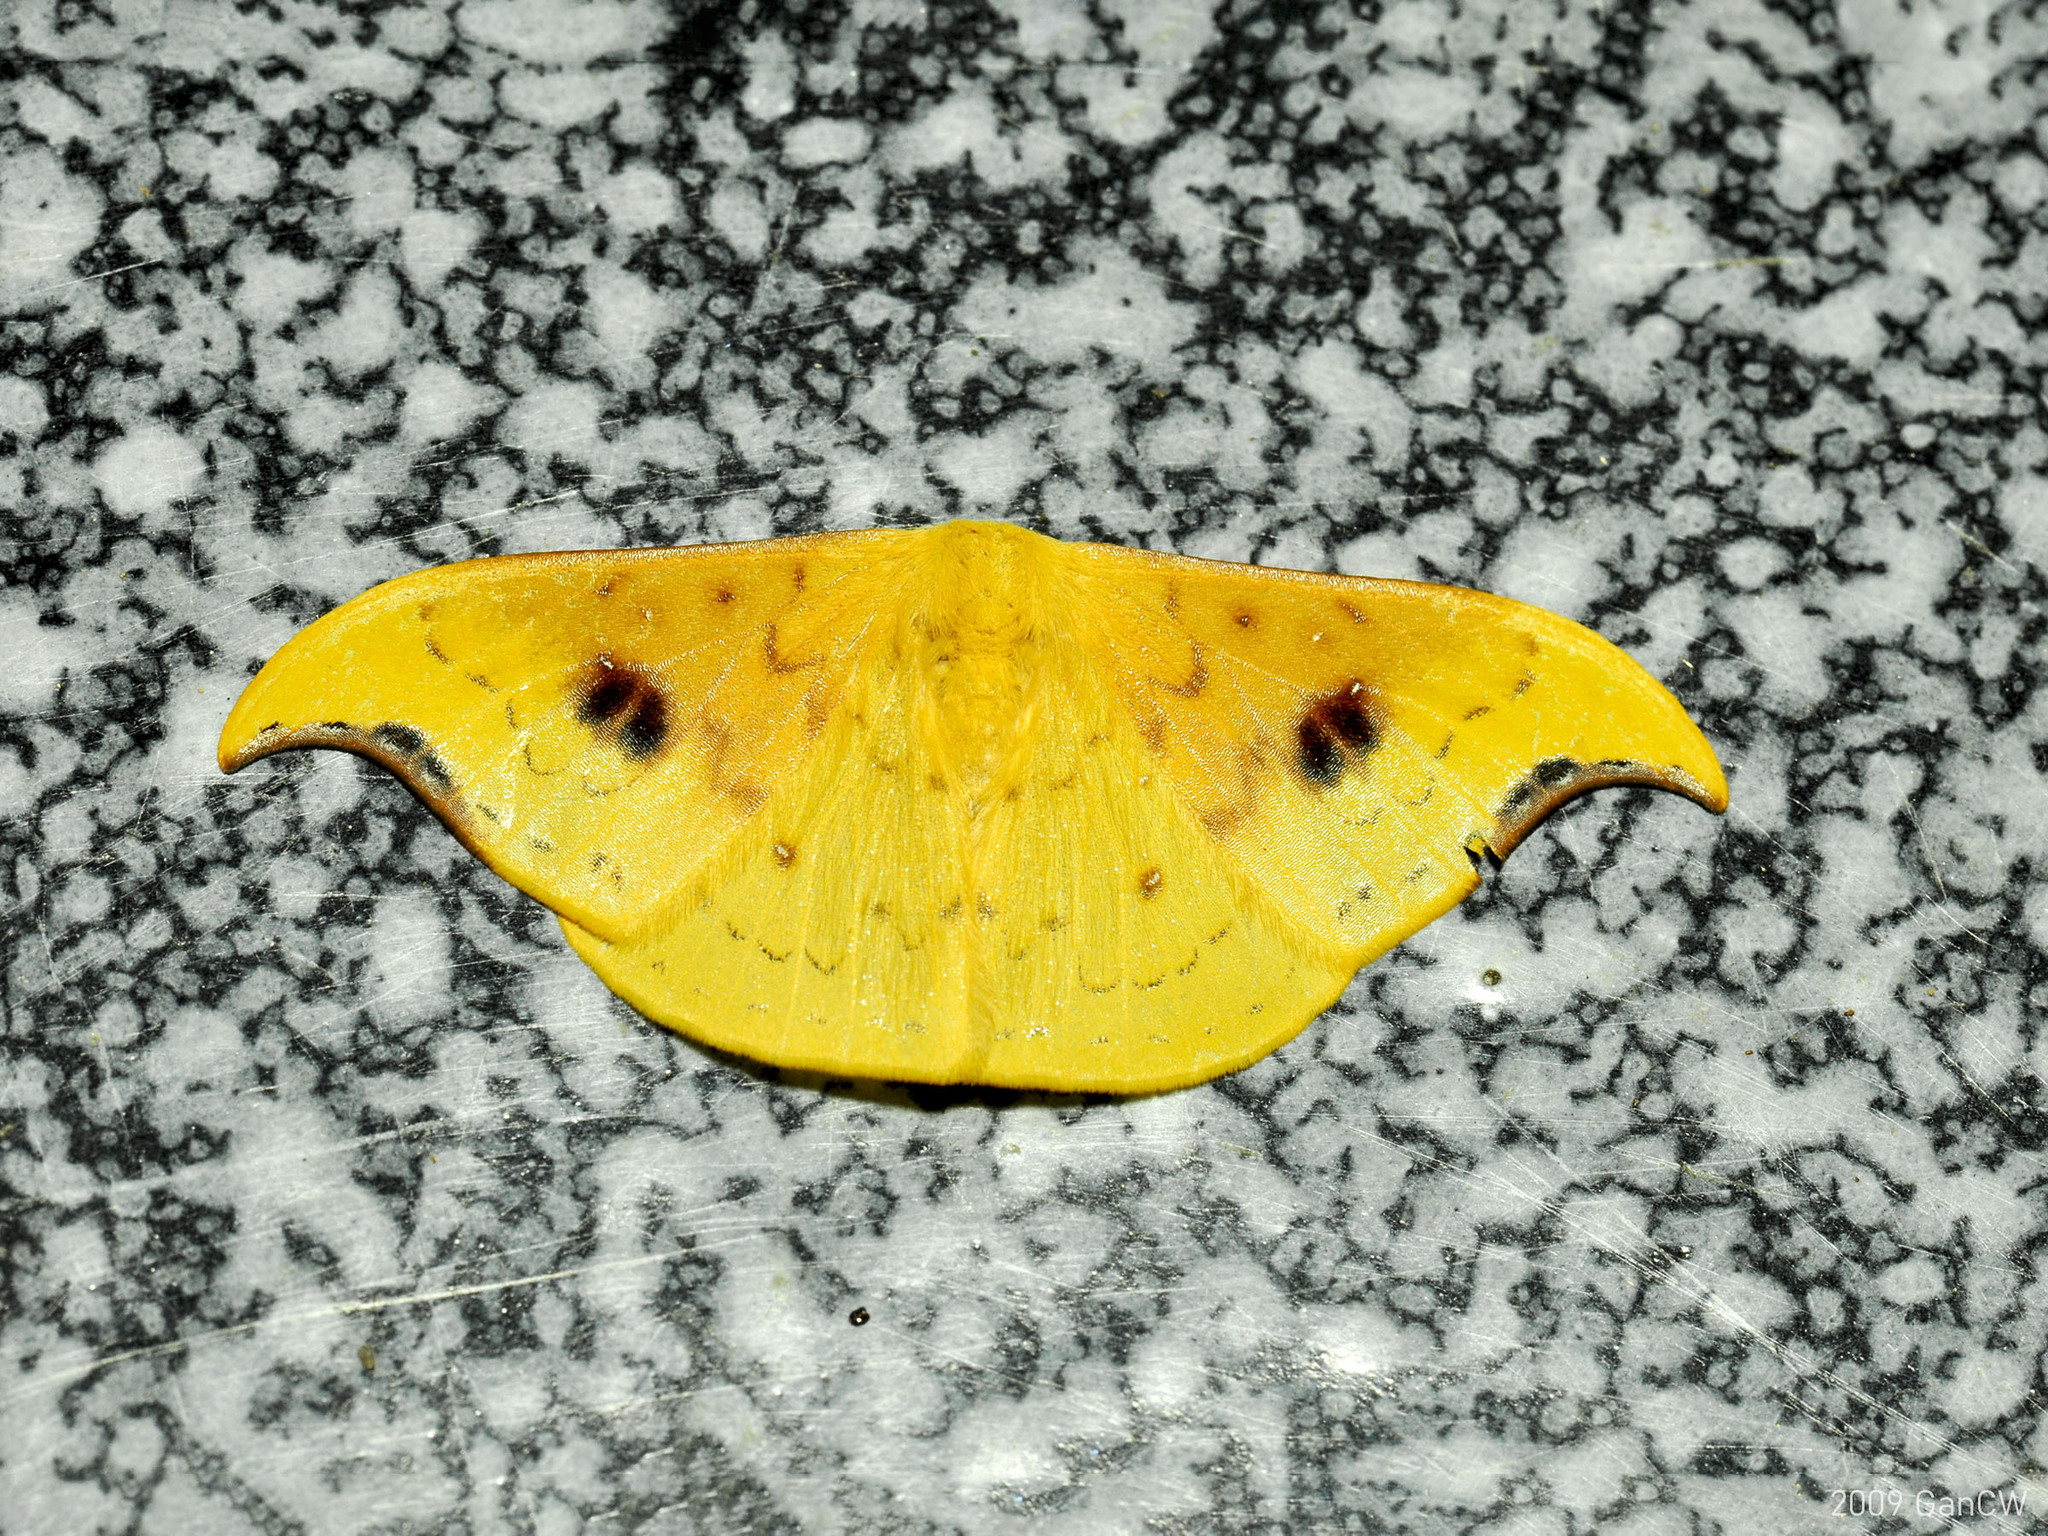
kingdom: Animalia
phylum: Arthropoda
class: Insecta
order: Lepidoptera
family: Drepanidae
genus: Tridrepana
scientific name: Tridrepana fulvata
